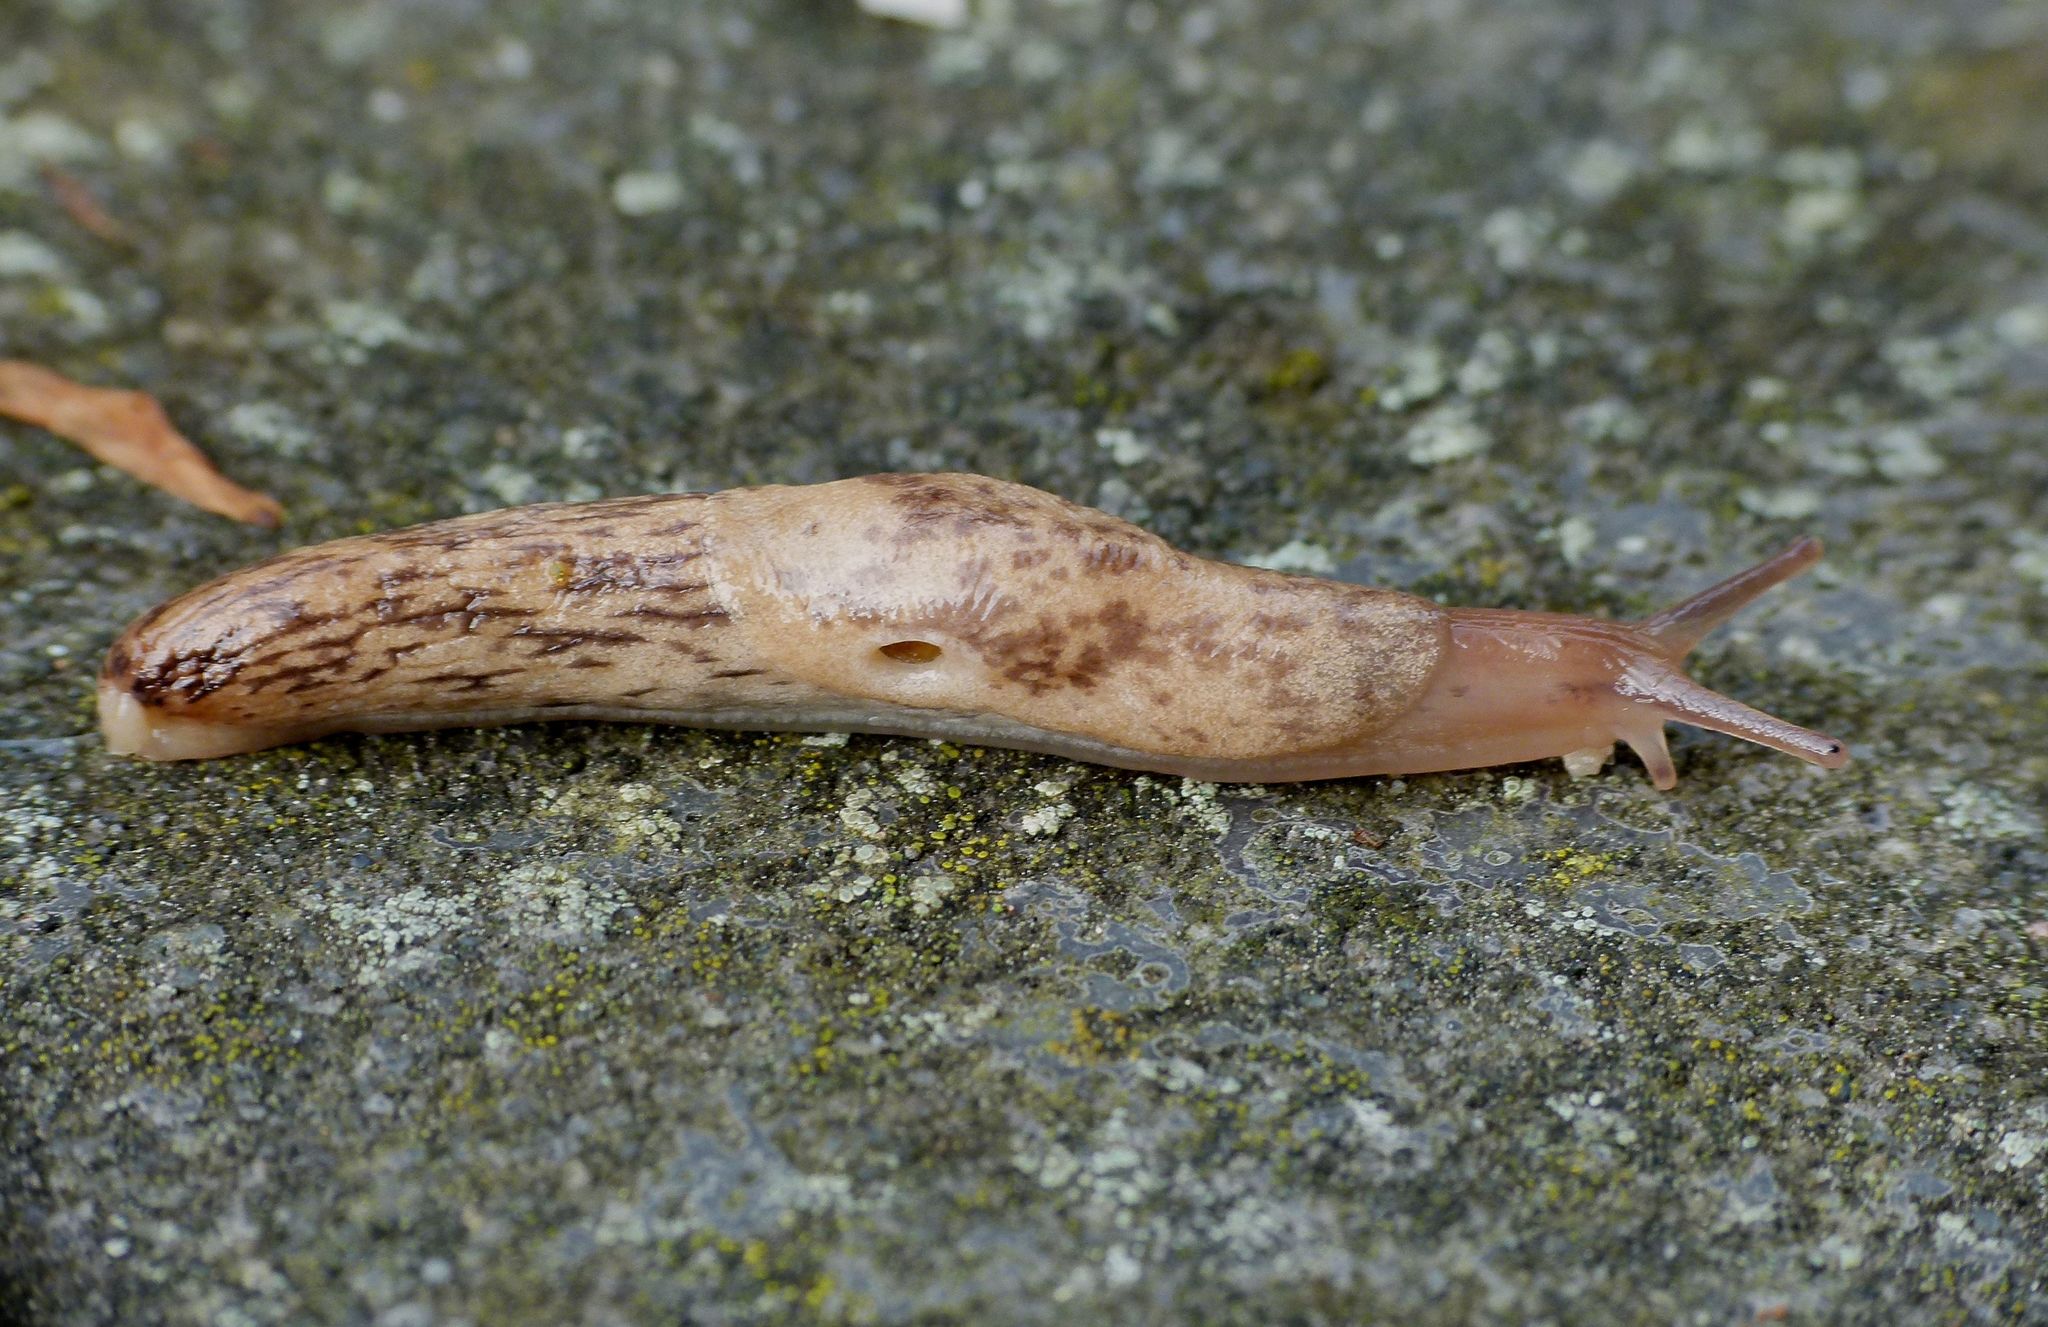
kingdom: Animalia
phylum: Mollusca
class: Gastropoda
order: Stylommatophora
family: Agriolimacidae
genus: Deroceras
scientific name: Deroceras reticulatum
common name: Gray field slug
